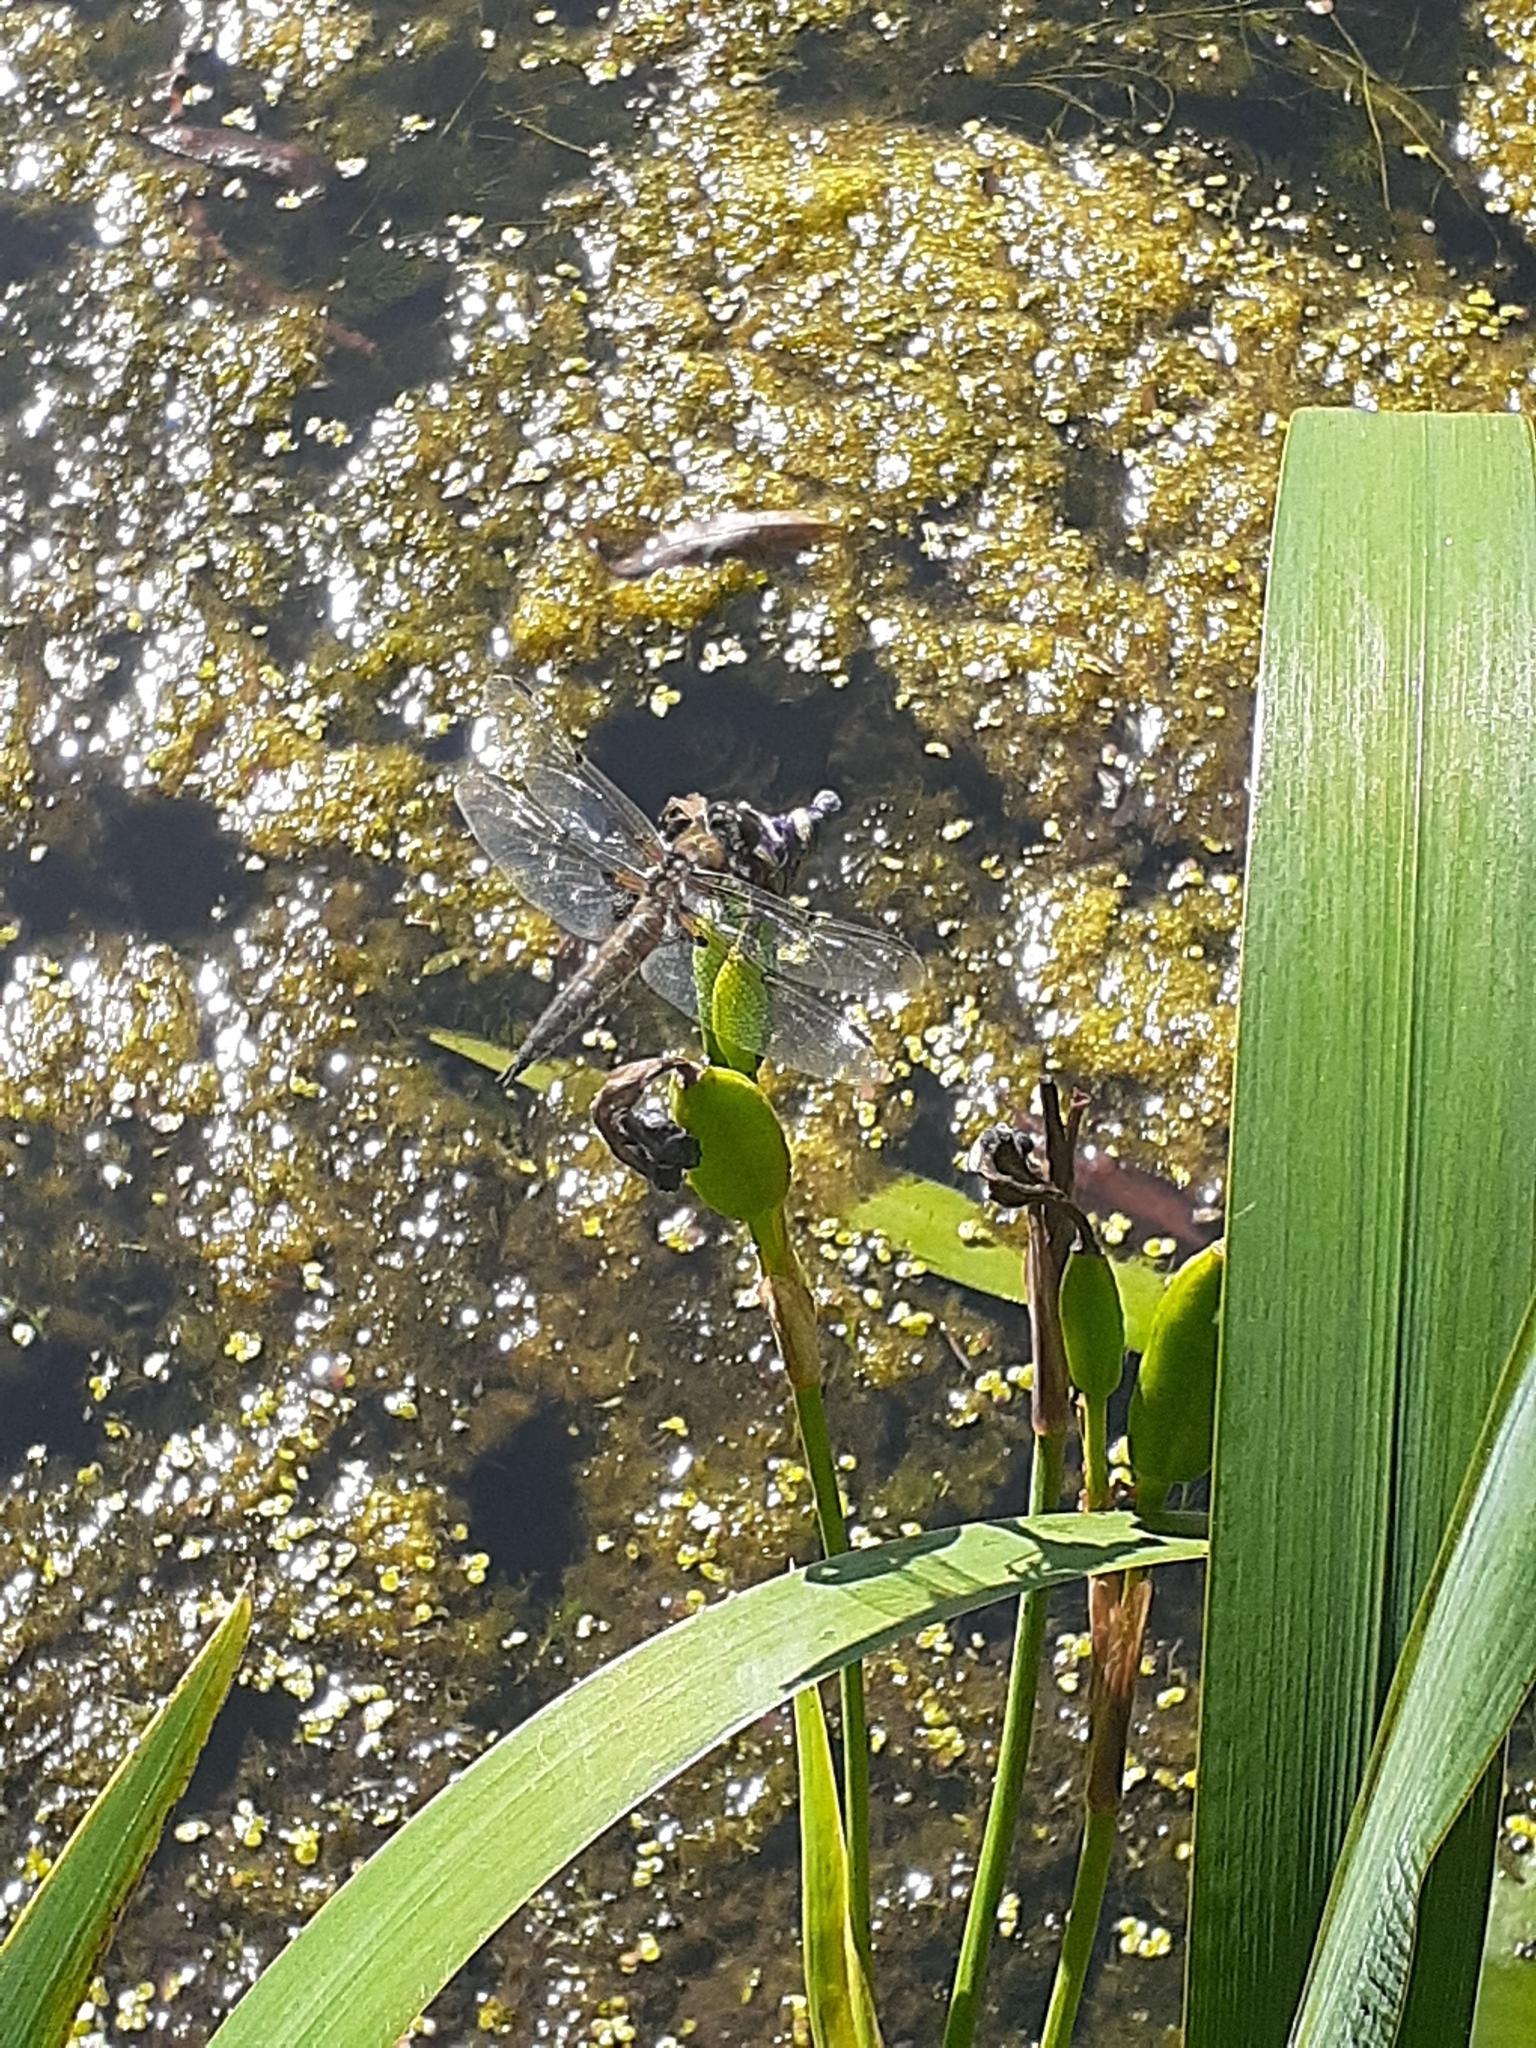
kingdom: Animalia
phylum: Arthropoda
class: Insecta
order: Odonata
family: Libellulidae
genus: Libellula
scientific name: Libellula quadrimaculata
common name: Four-spotted chaser
